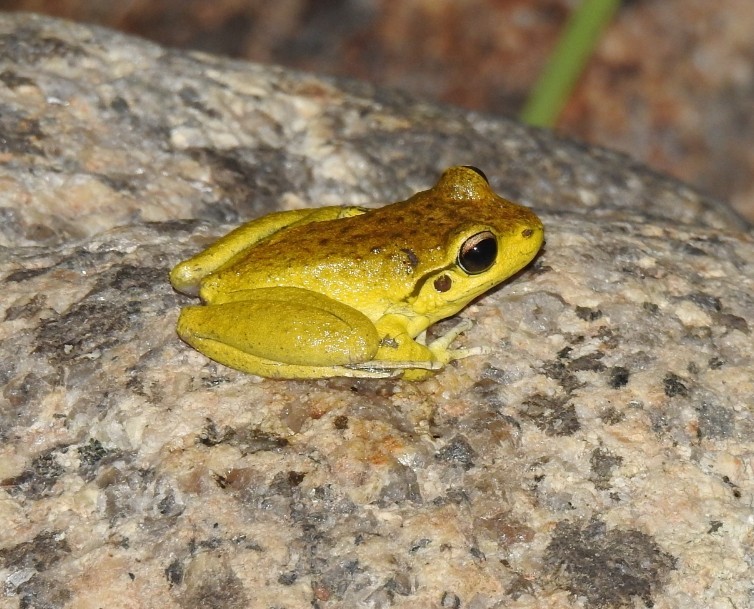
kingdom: Animalia
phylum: Chordata
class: Amphibia
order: Anura
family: Pelodryadidae
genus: Ranoidea
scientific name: Ranoidea lesueurii
